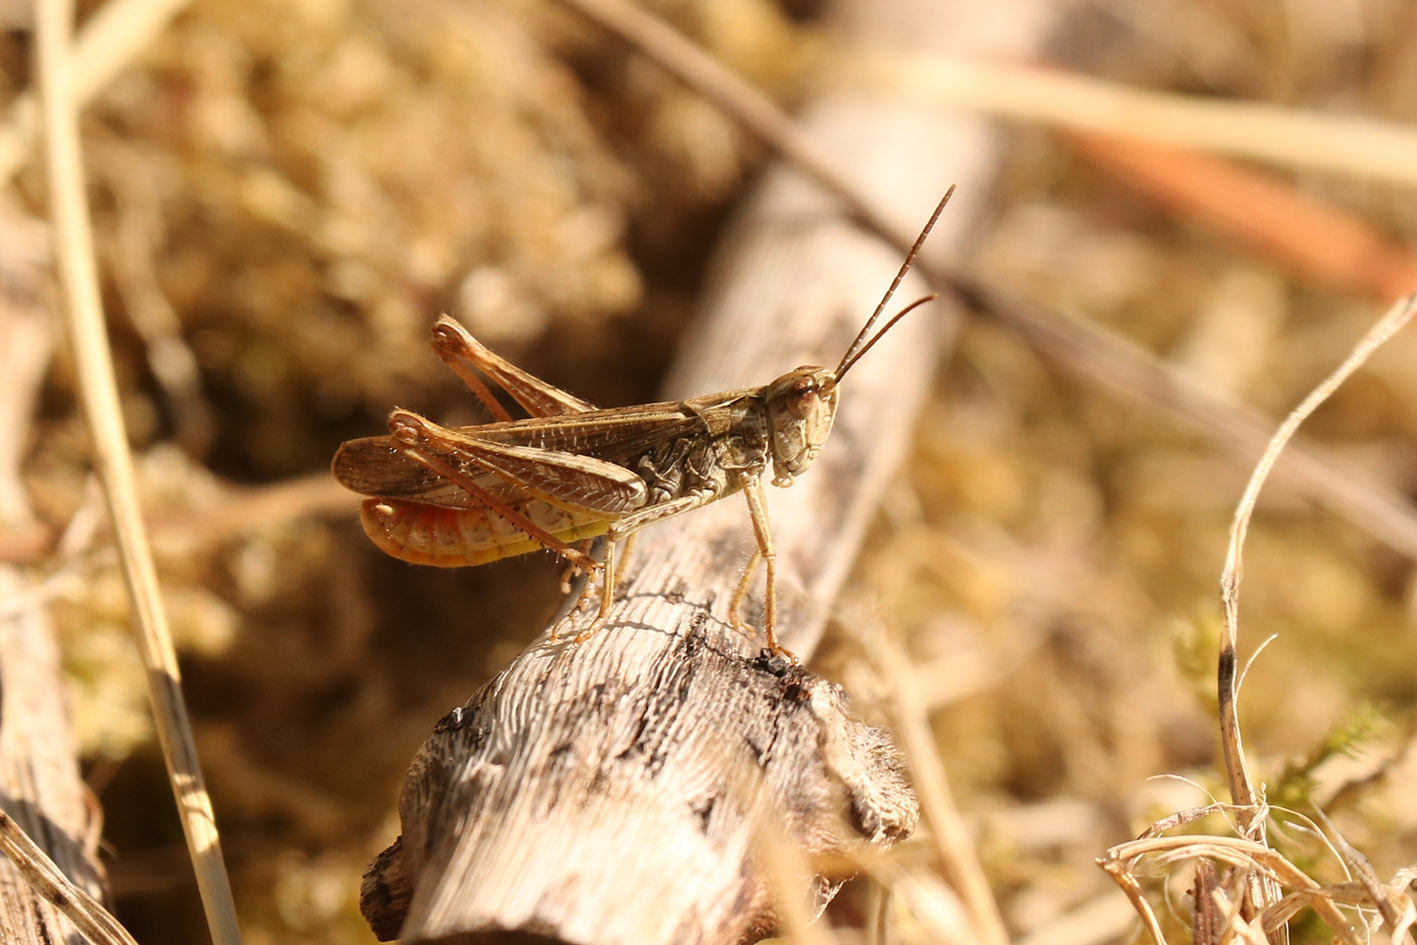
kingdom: Animalia
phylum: Arthropoda
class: Insecta
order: Orthoptera
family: Acrididae
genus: Chorthippus
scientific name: Chorthippus biguttulus
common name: Bow-winged grasshopper
